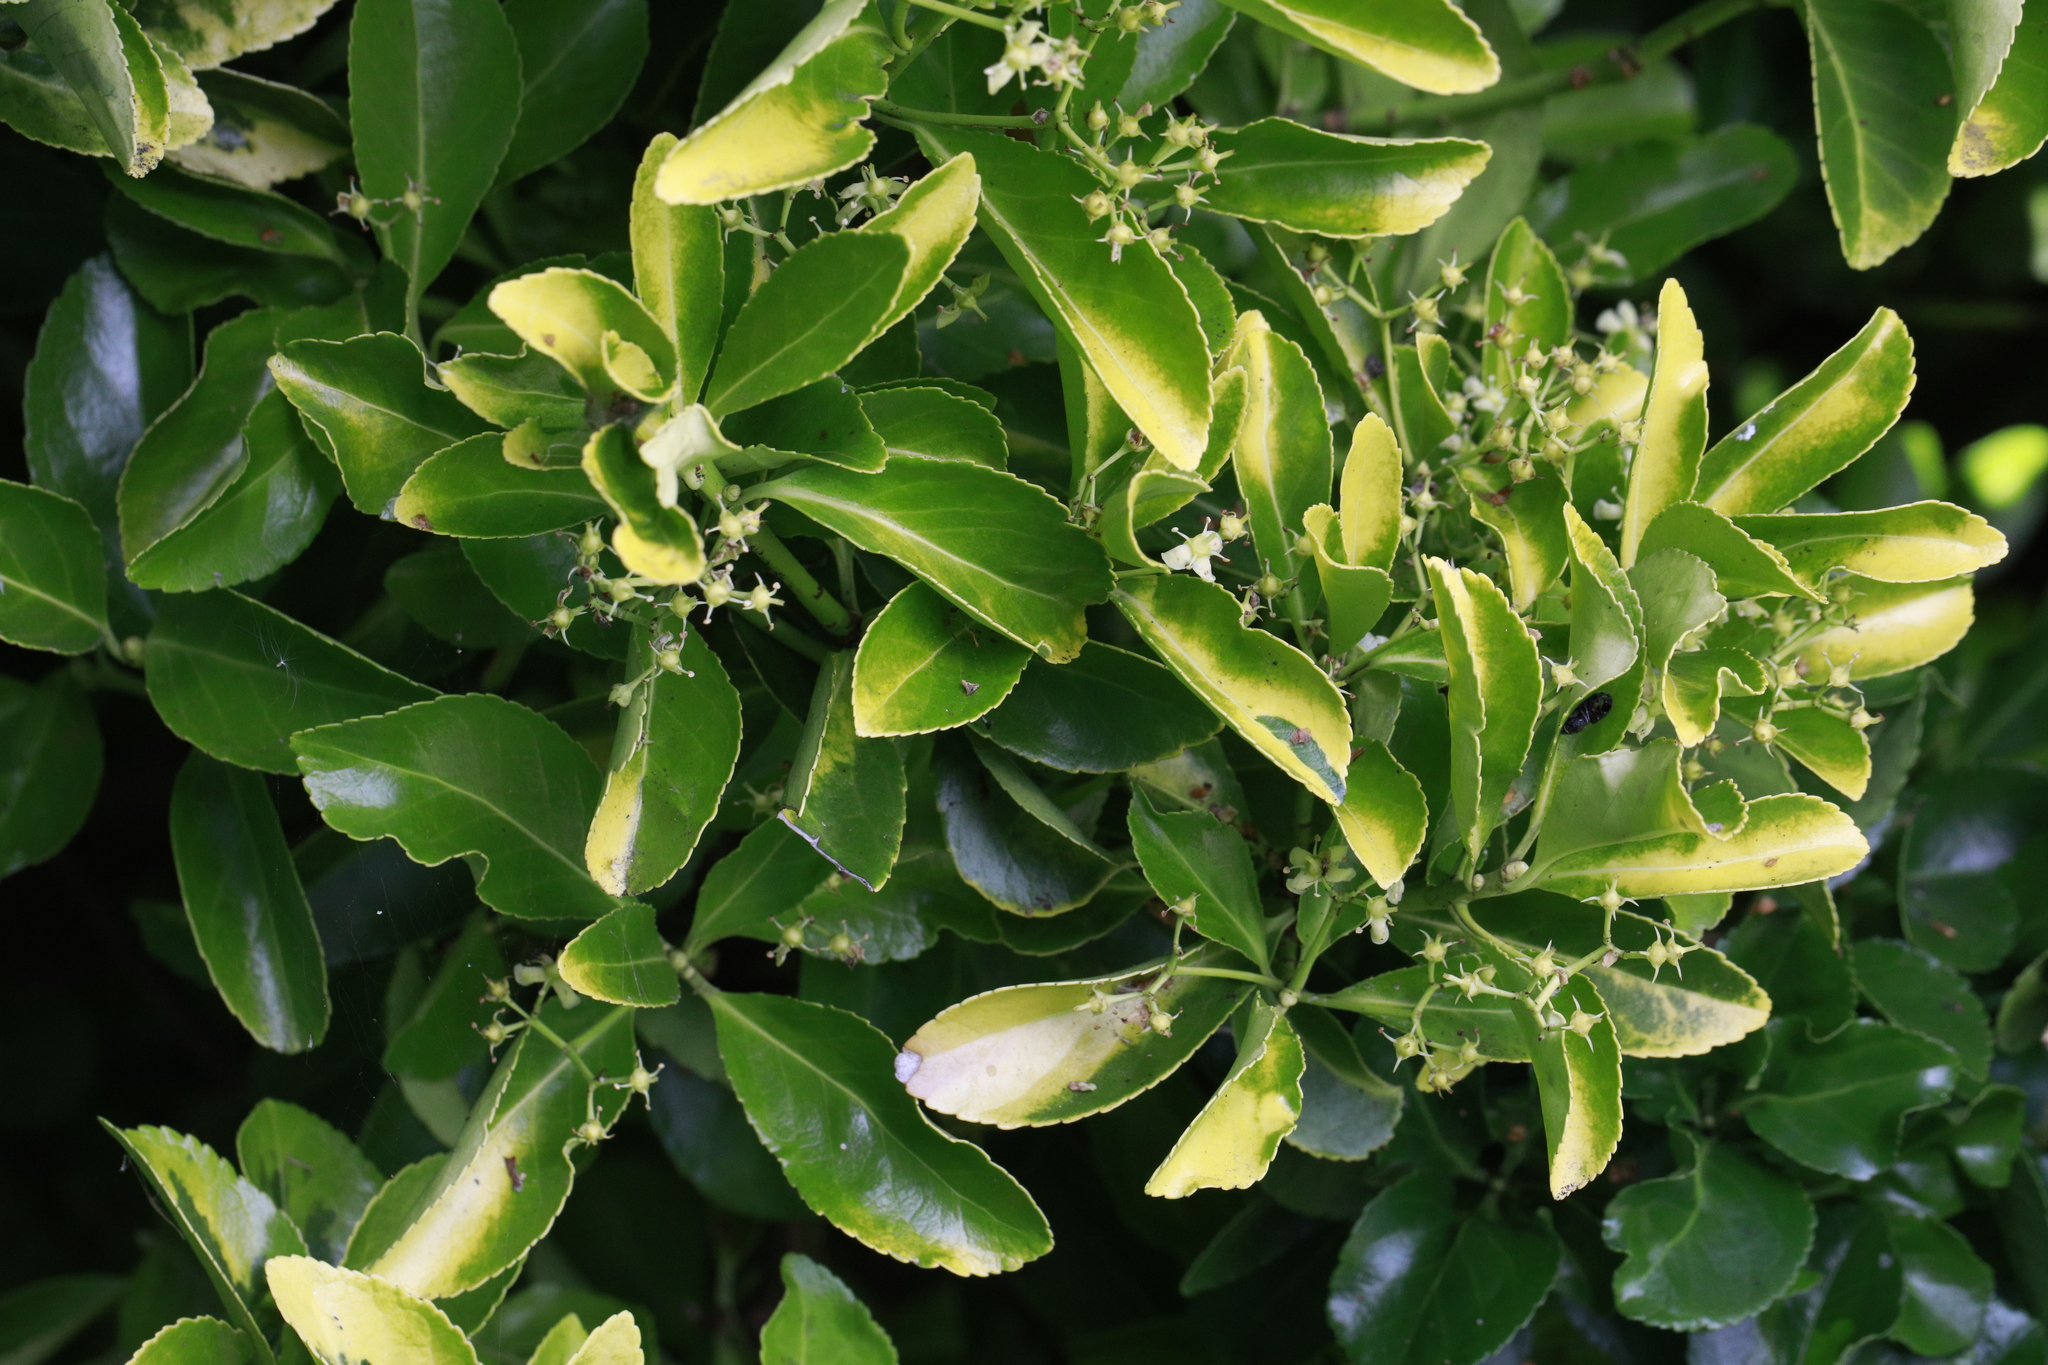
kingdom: Plantae
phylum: Tracheophyta
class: Magnoliopsida
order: Celastrales
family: Celastraceae
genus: Euonymus
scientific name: Euonymus japonicus
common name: Japanese spindletree
